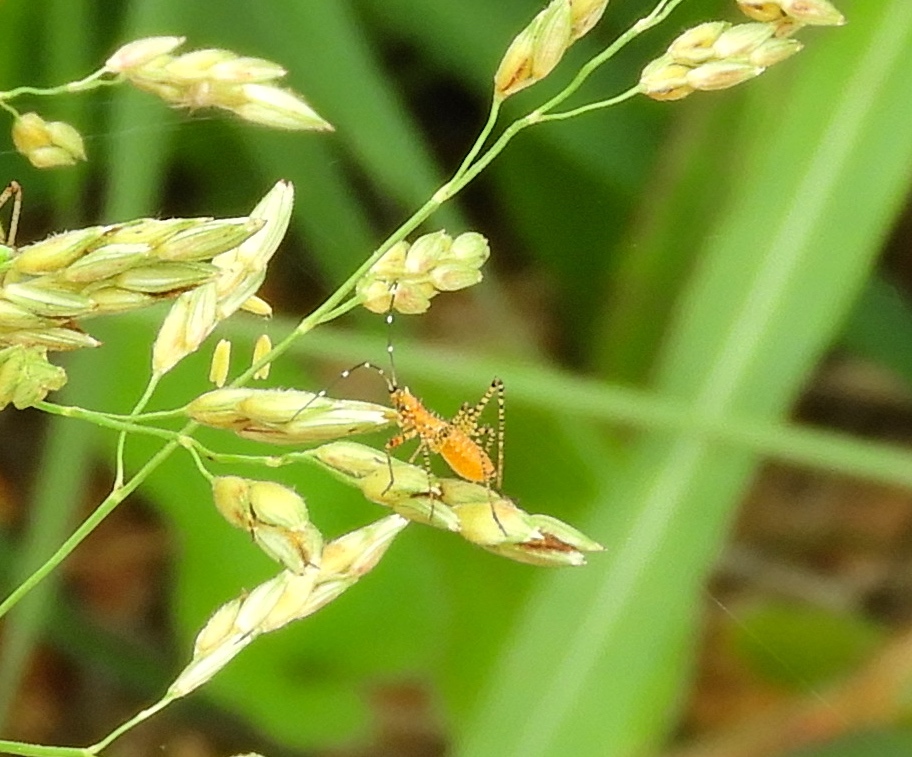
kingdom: Animalia
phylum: Arthropoda
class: Insecta
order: Hemiptera
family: Reduviidae
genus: Pselliopus
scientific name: Pselliopus
